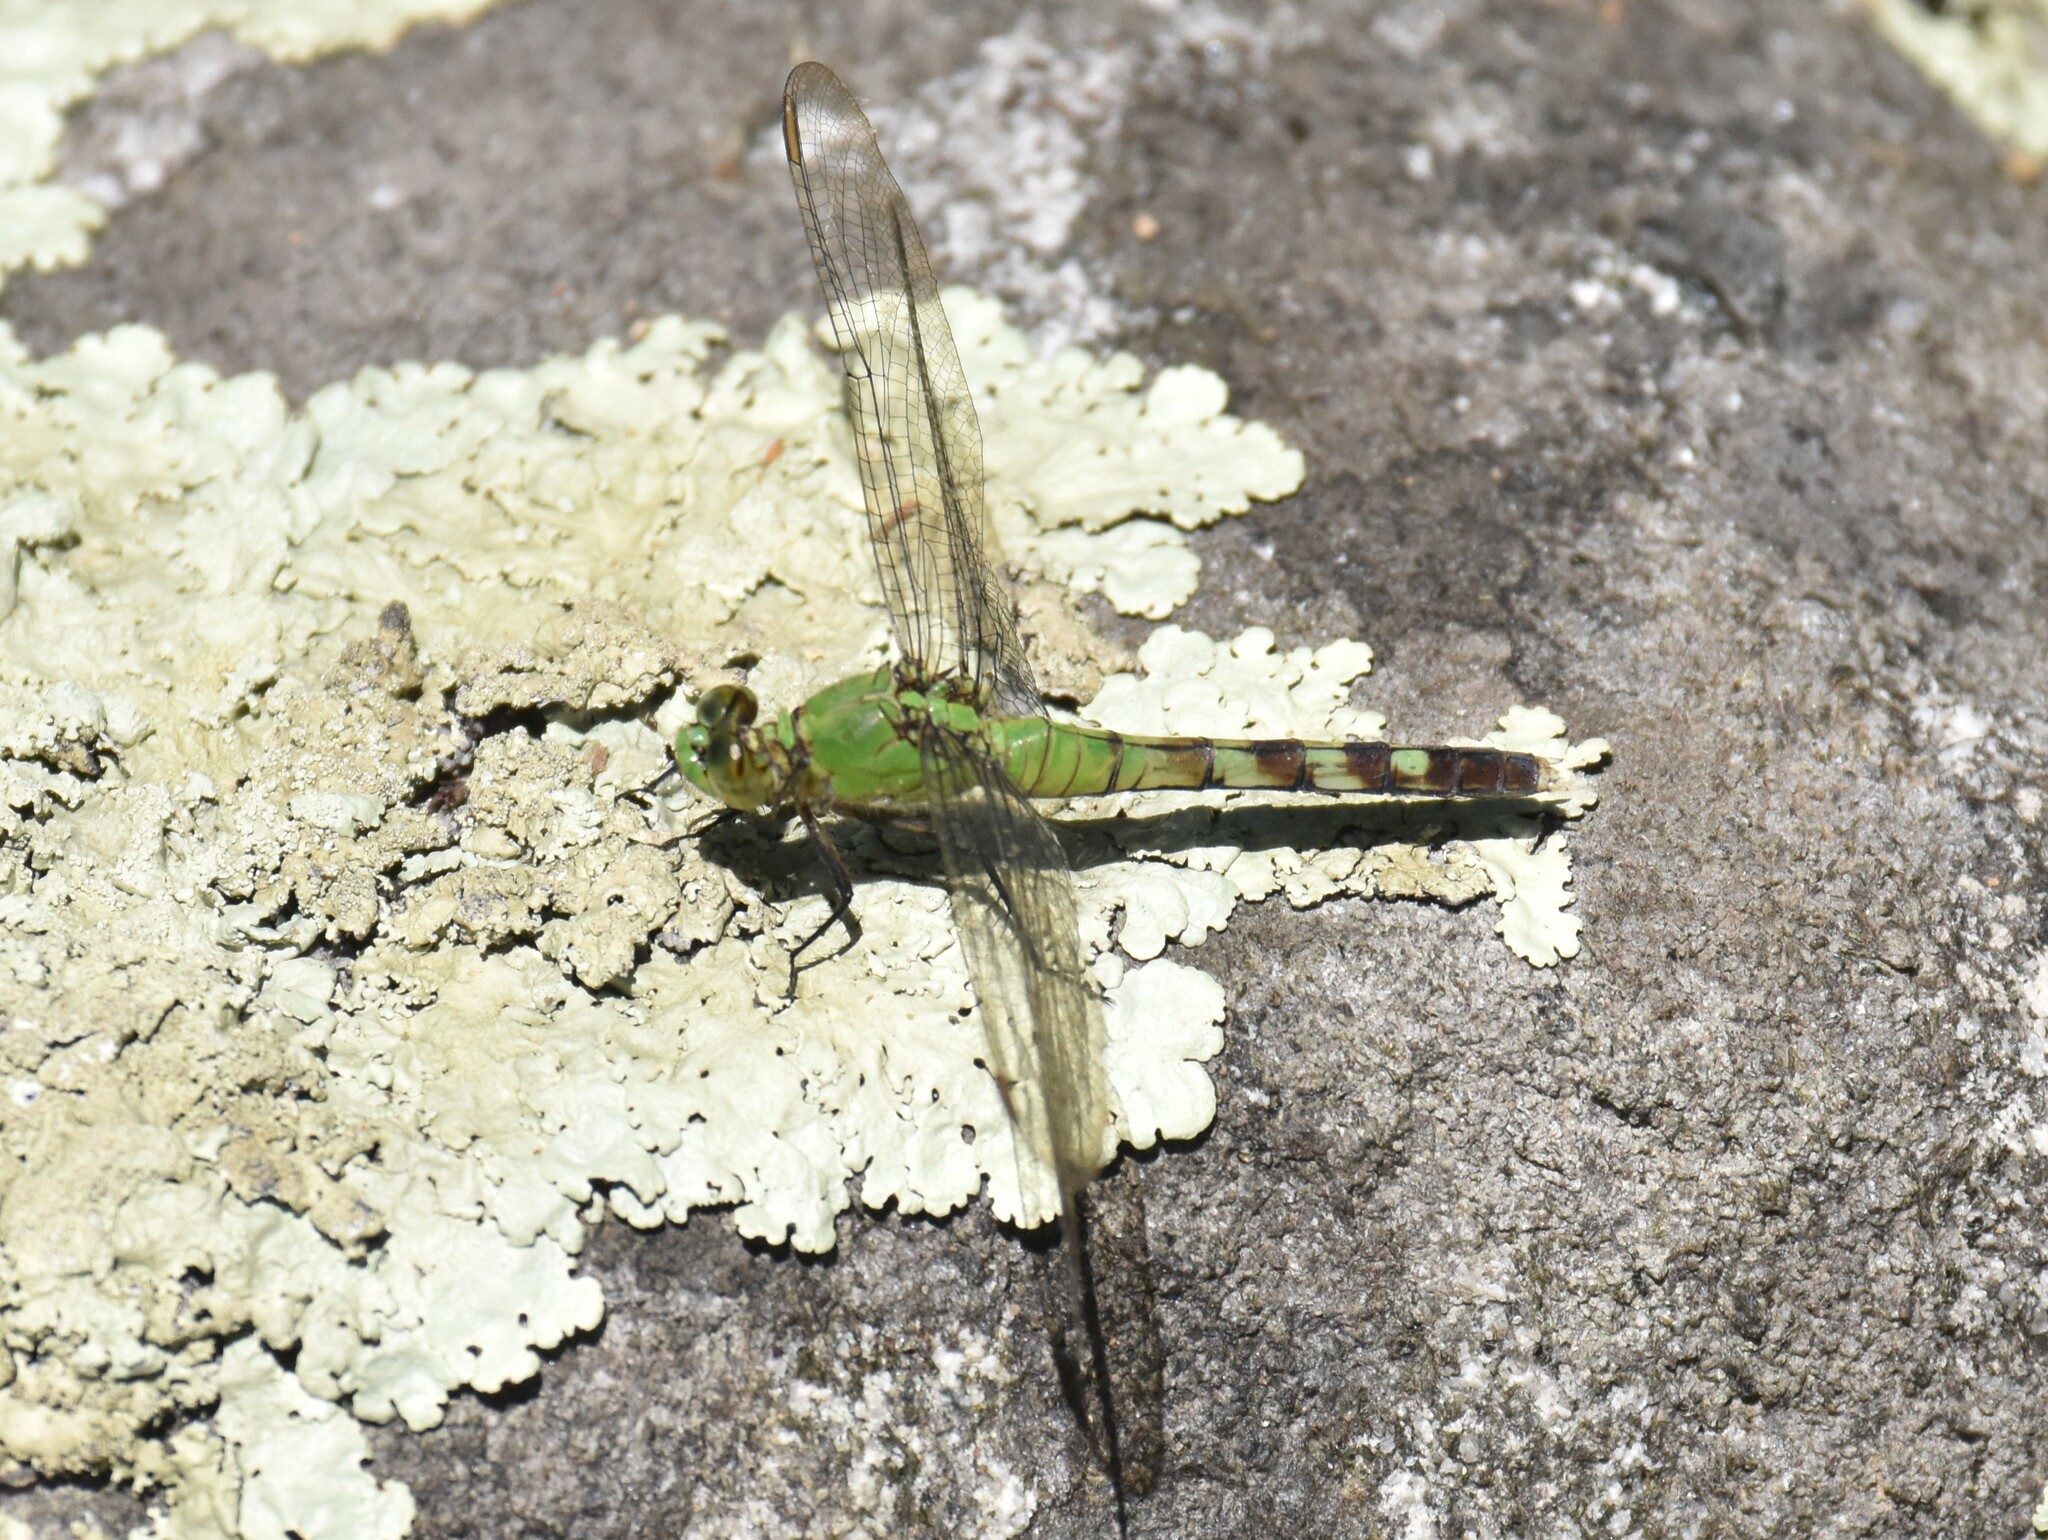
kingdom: Animalia
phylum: Arthropoda
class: Insecta
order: Odonata
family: Libellulidae
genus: Erythemis
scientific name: Erythemis simplicicollis
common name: Eastern pondhawk
